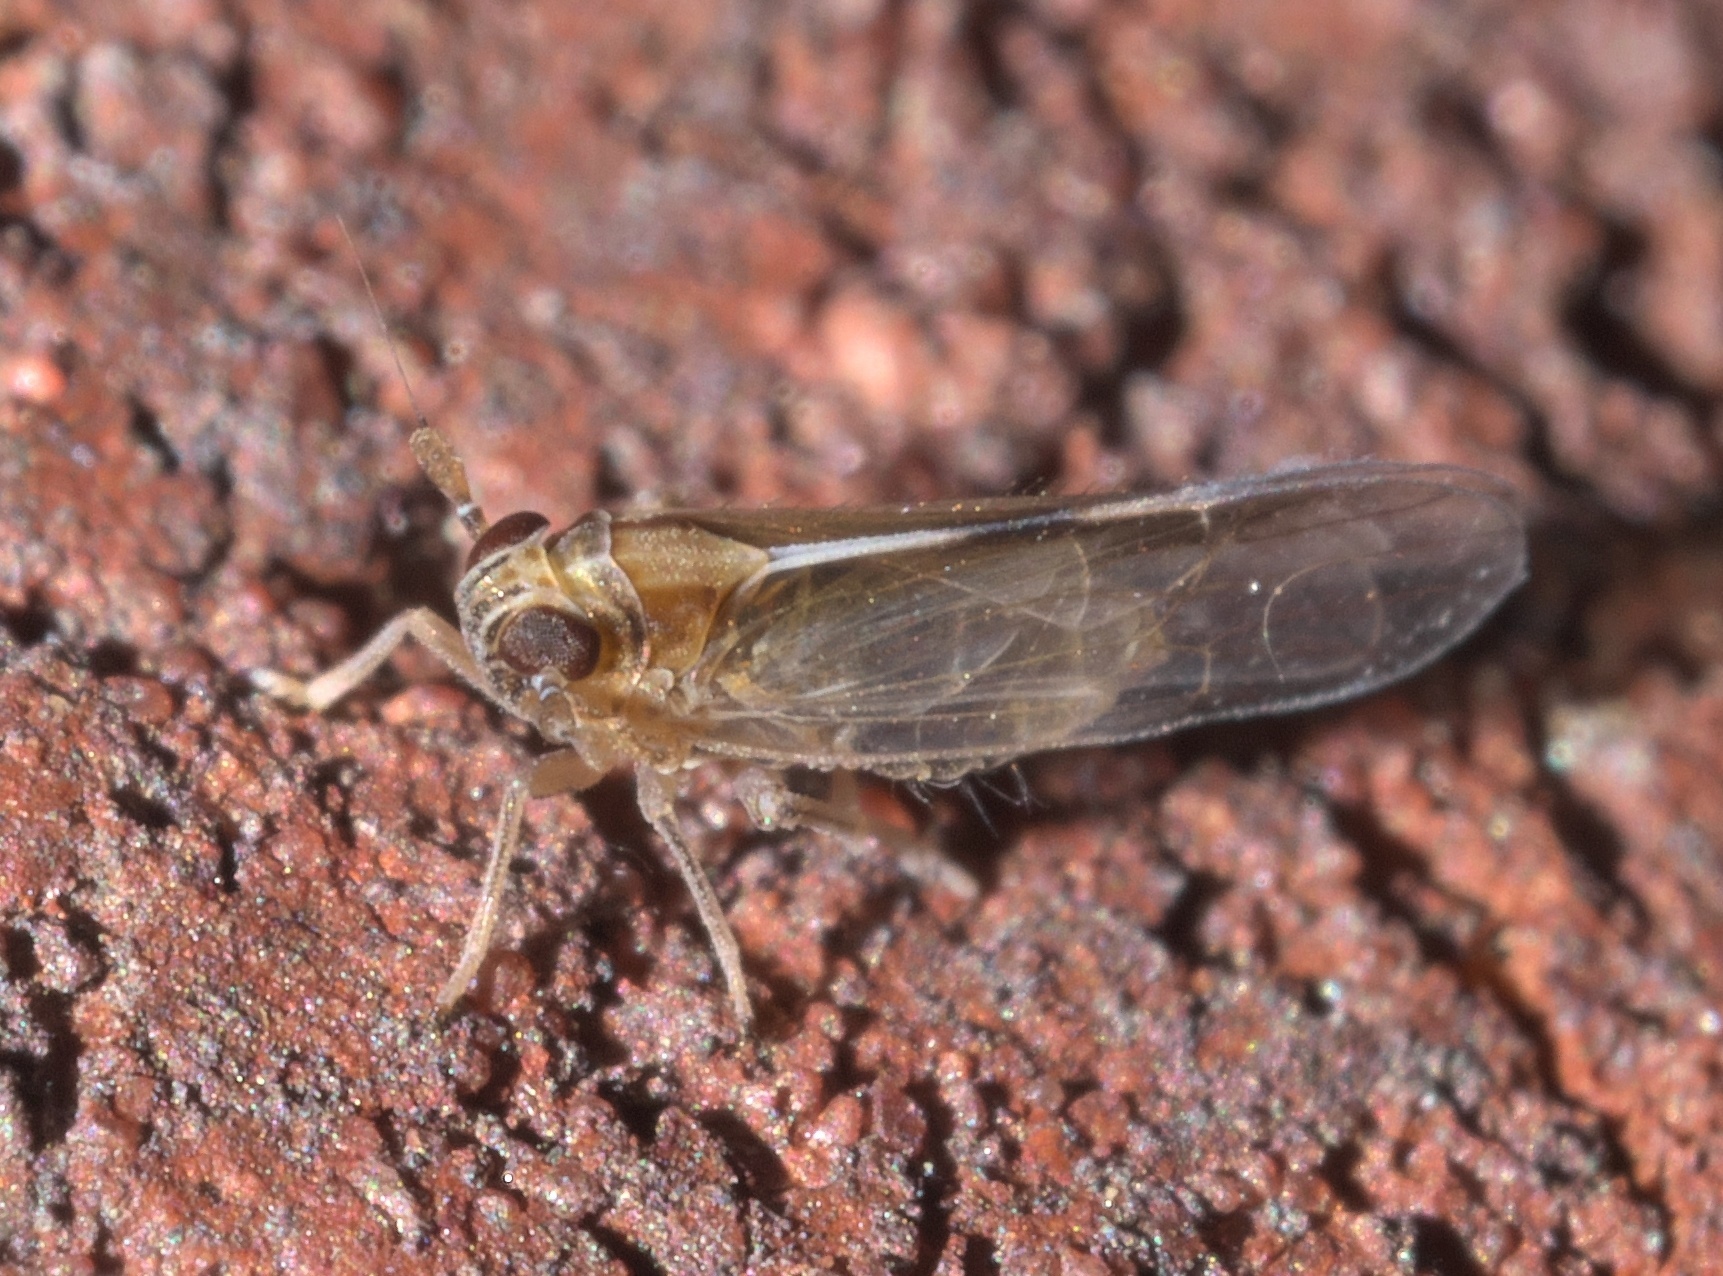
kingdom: Animalia
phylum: Arthropoda
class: Insecta
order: Hemiptera
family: Delphacidae
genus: Muellerianella
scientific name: Muellerianella laminalis
